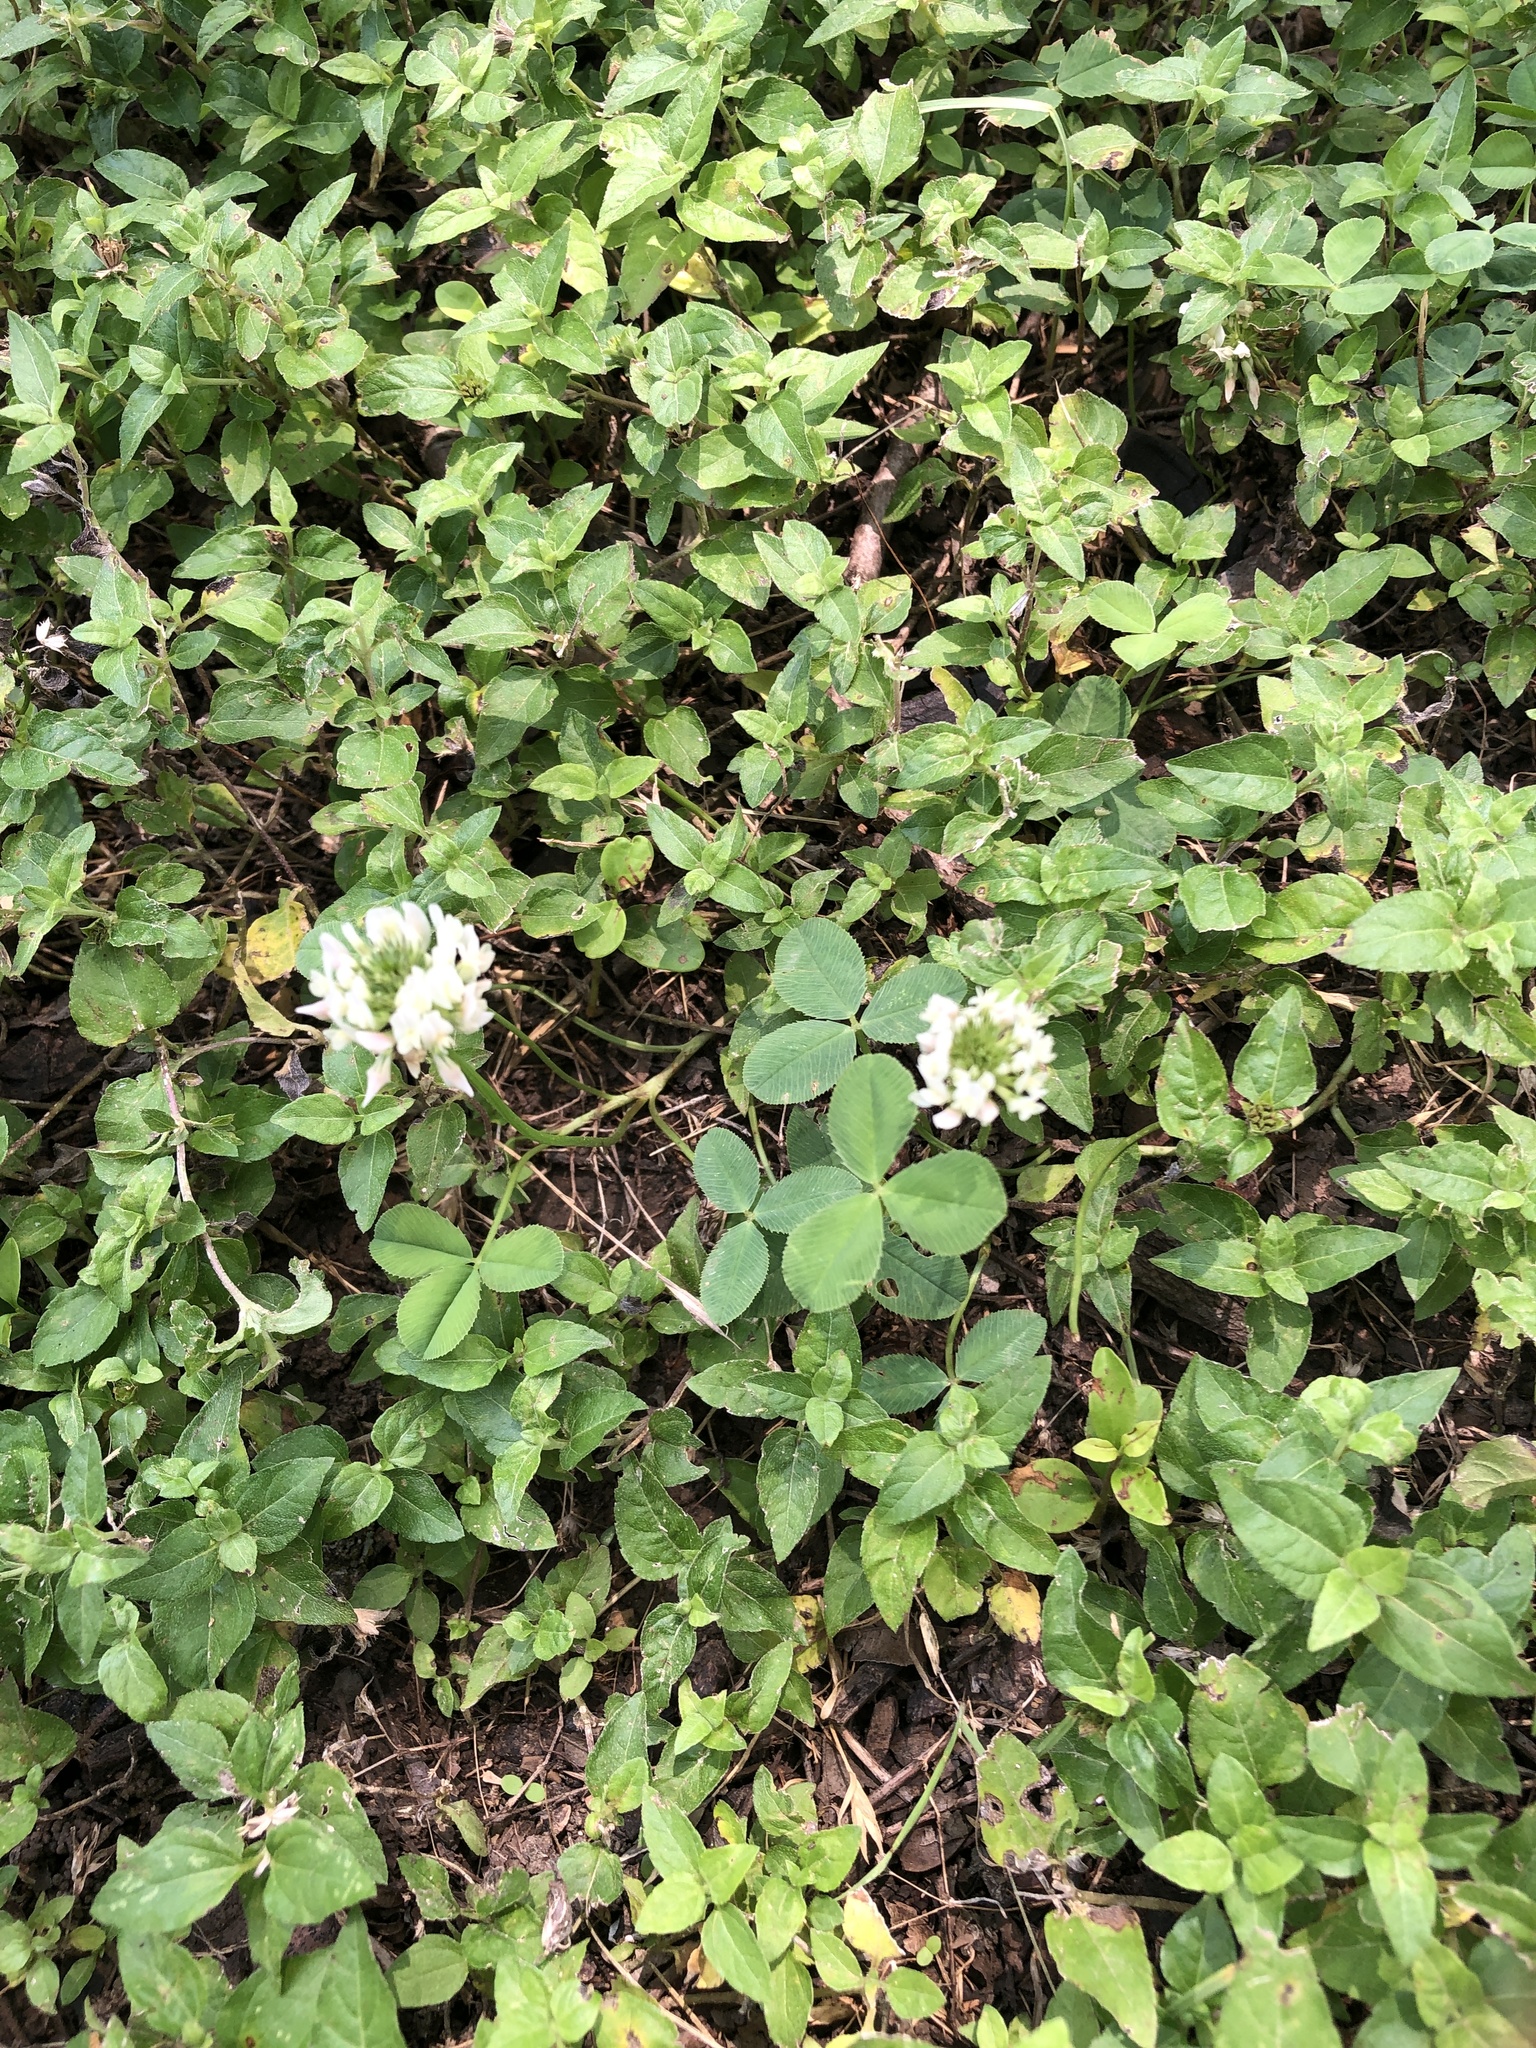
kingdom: Plantae
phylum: Tracheophyta
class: Magnoliopsida
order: Fabales
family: Fabaceae
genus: Trifolium
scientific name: Trifolium repens
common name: White clover
